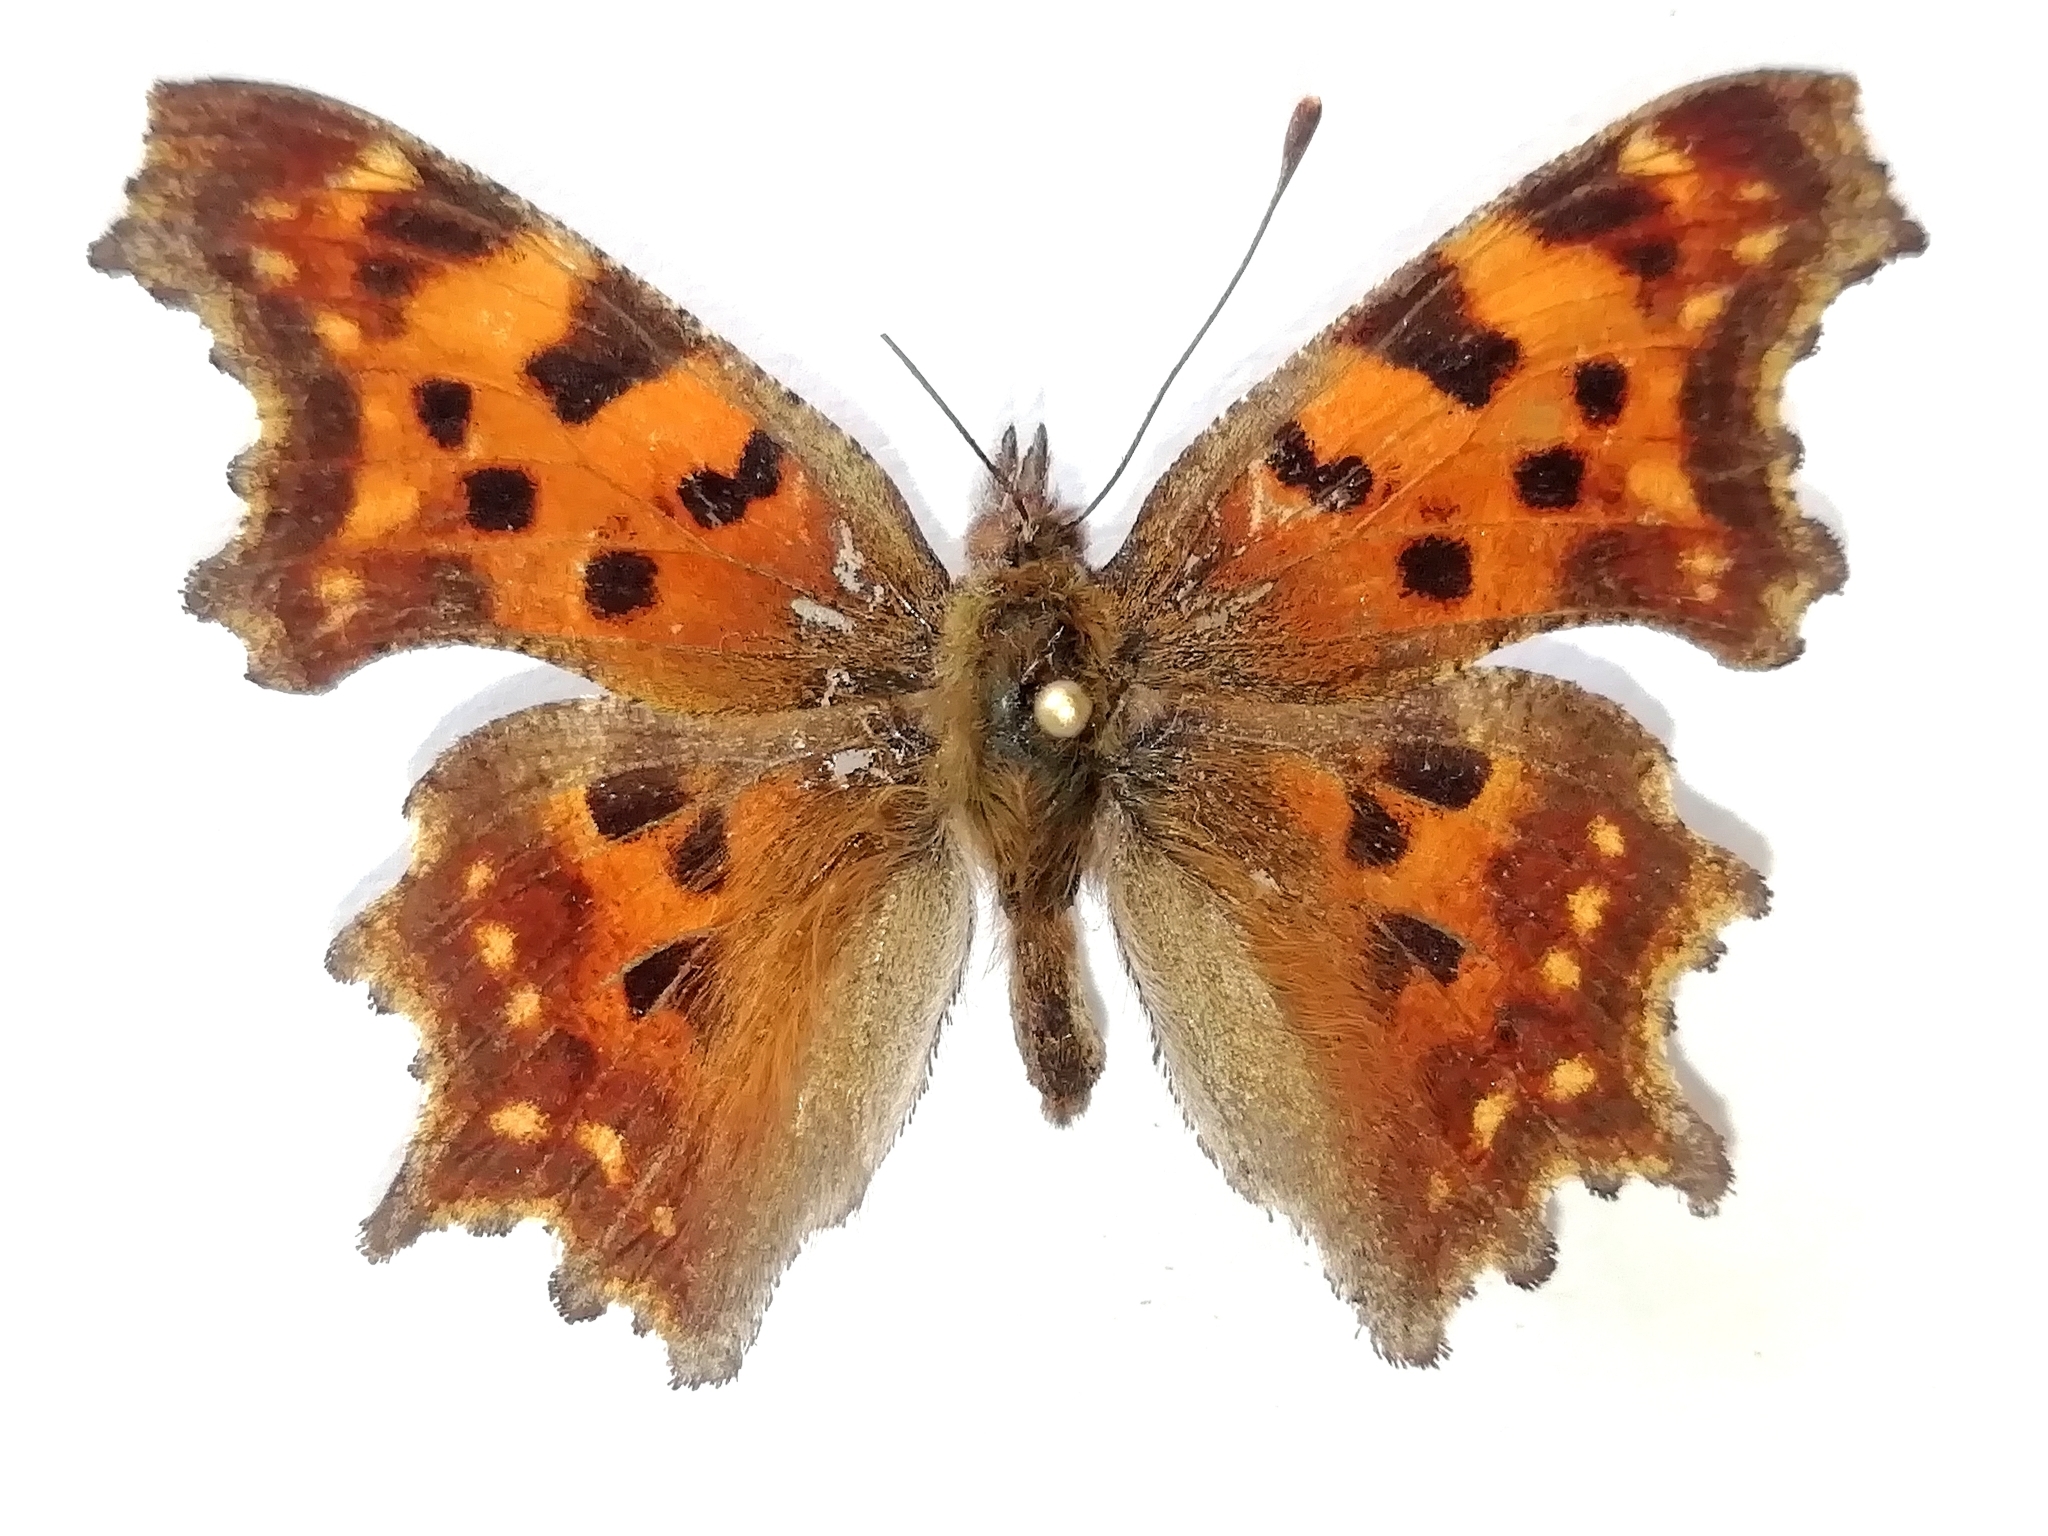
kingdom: Animalia
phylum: Arthropoda
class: Insecta
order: Lepidoptera
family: Nymphalidae
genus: Polygonia
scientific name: Polygonia c-album
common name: Comma
